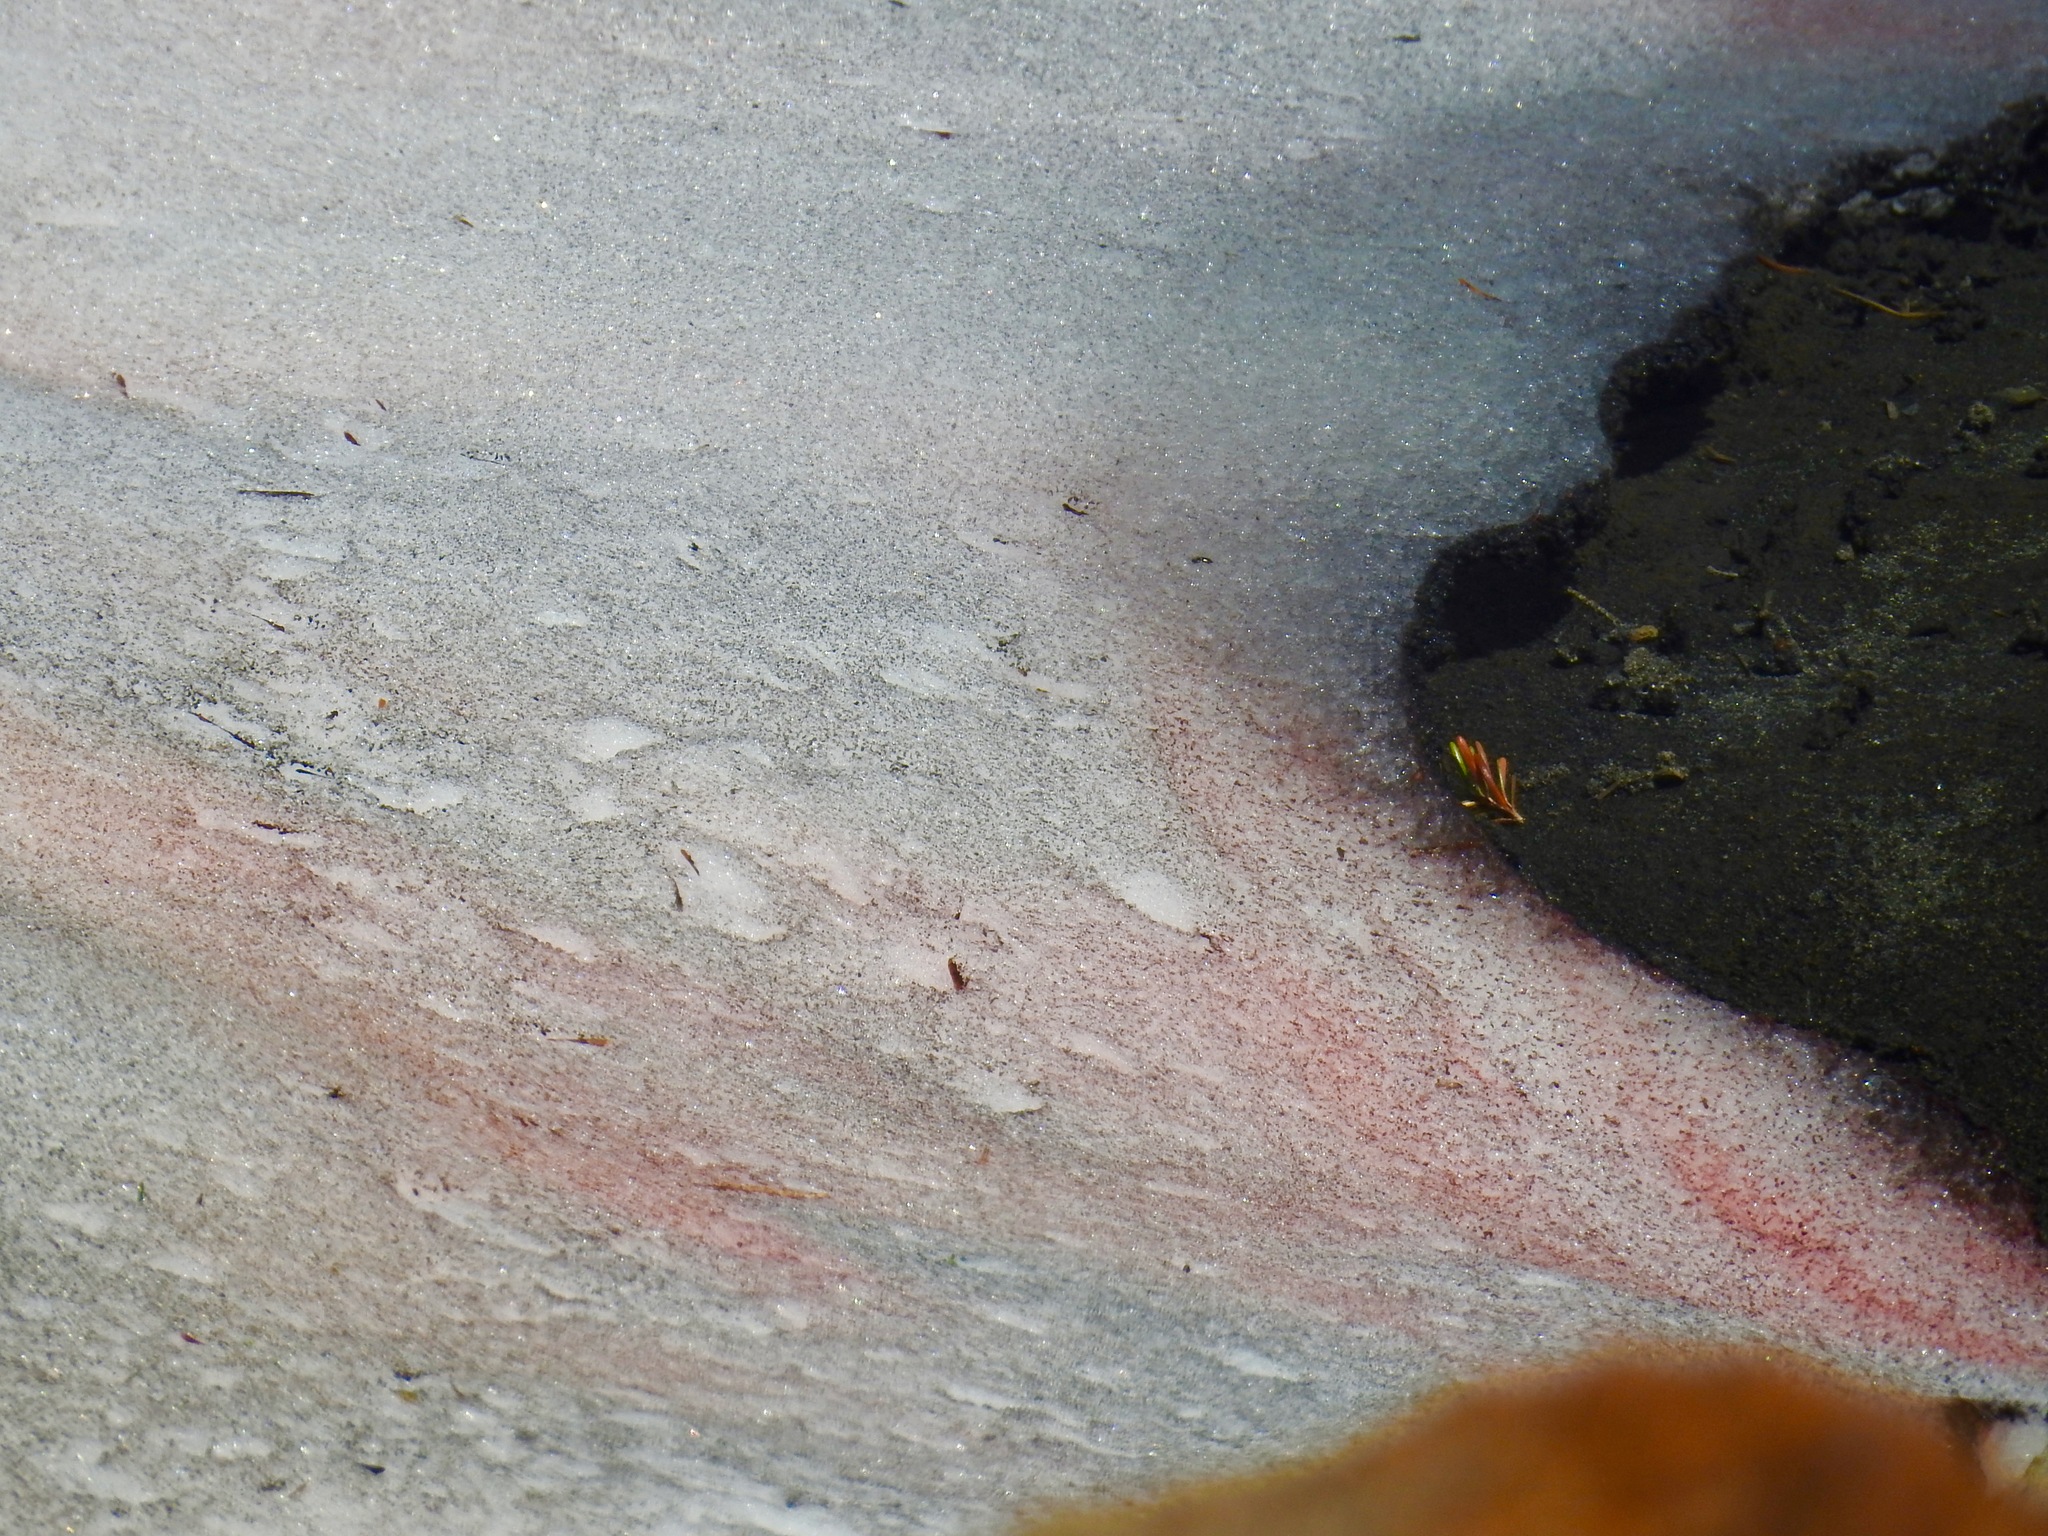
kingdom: Plantae
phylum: Chlorophyta
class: Chlorophyceae
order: Volvocales
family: Chlamydomonadaceae
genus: Chlamydomonas
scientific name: Chlamydomonas nivalis
